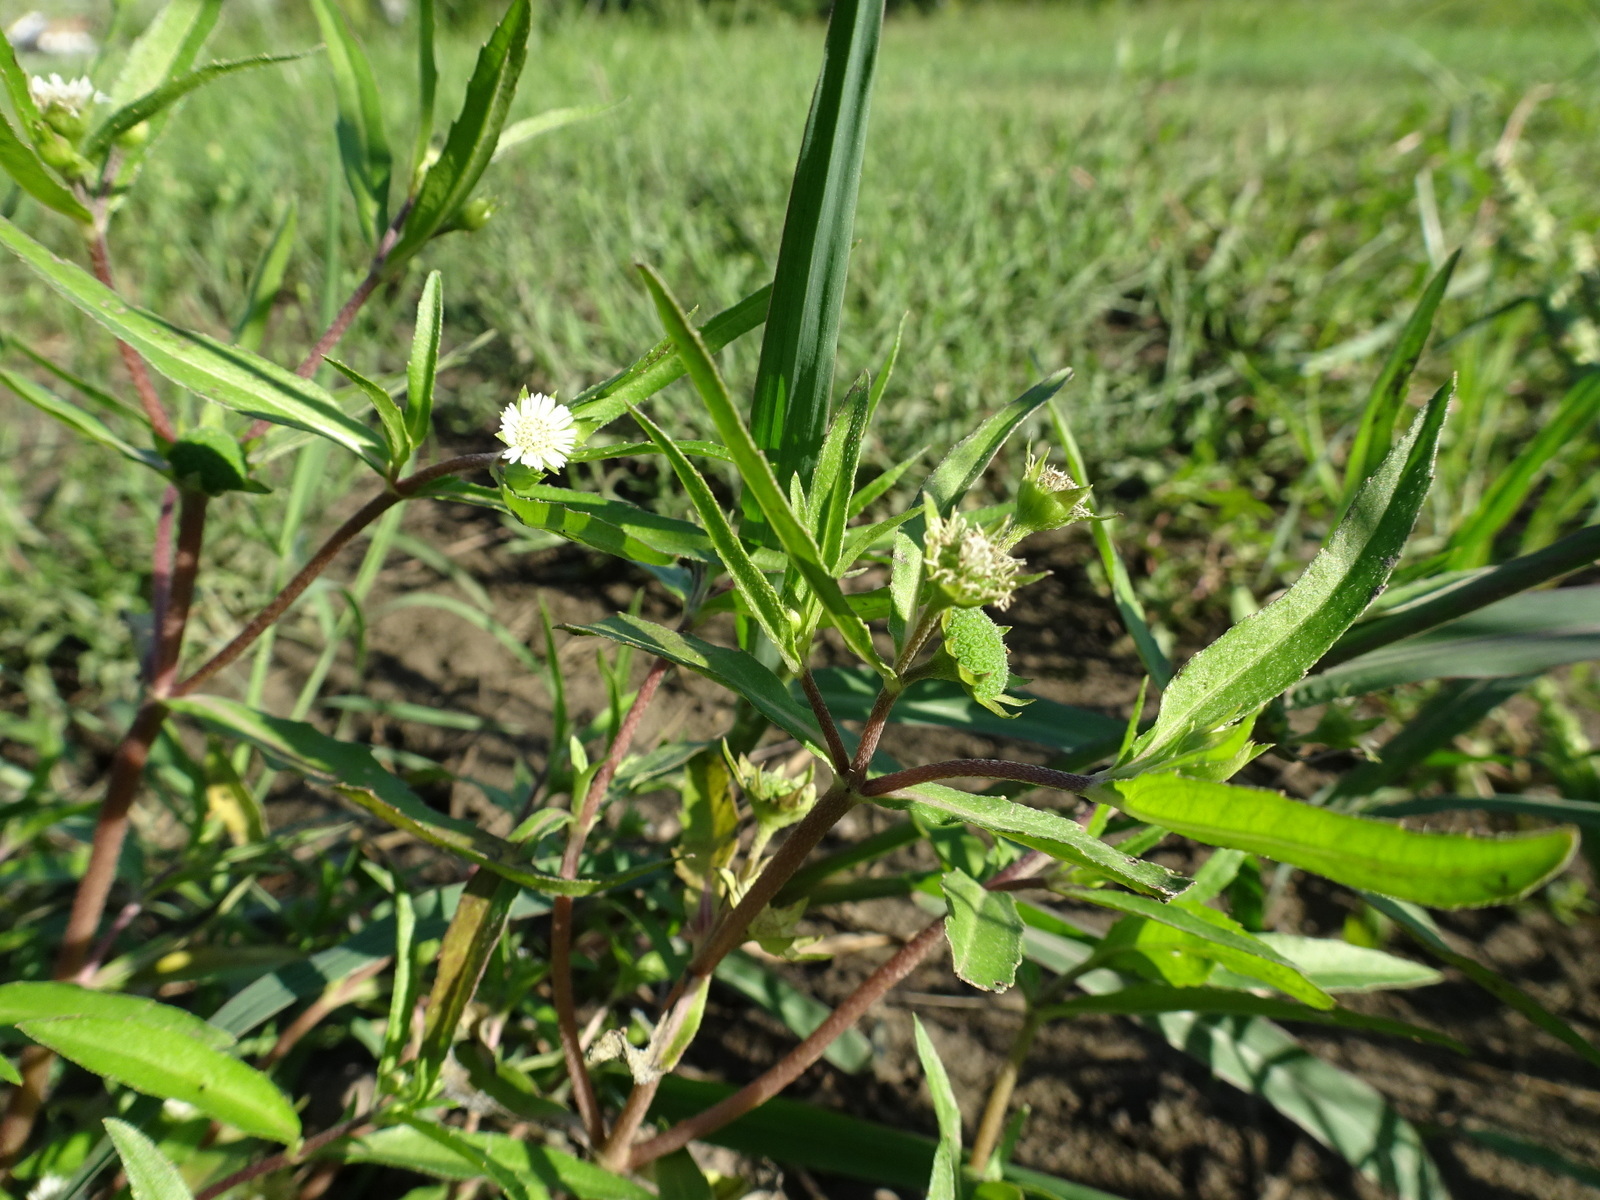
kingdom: Plantae
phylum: Tracheophyta
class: Magnoliopsida
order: Asterales
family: Asteraceae
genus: Eclipta
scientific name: Eclipta prostrata
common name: False daisy
